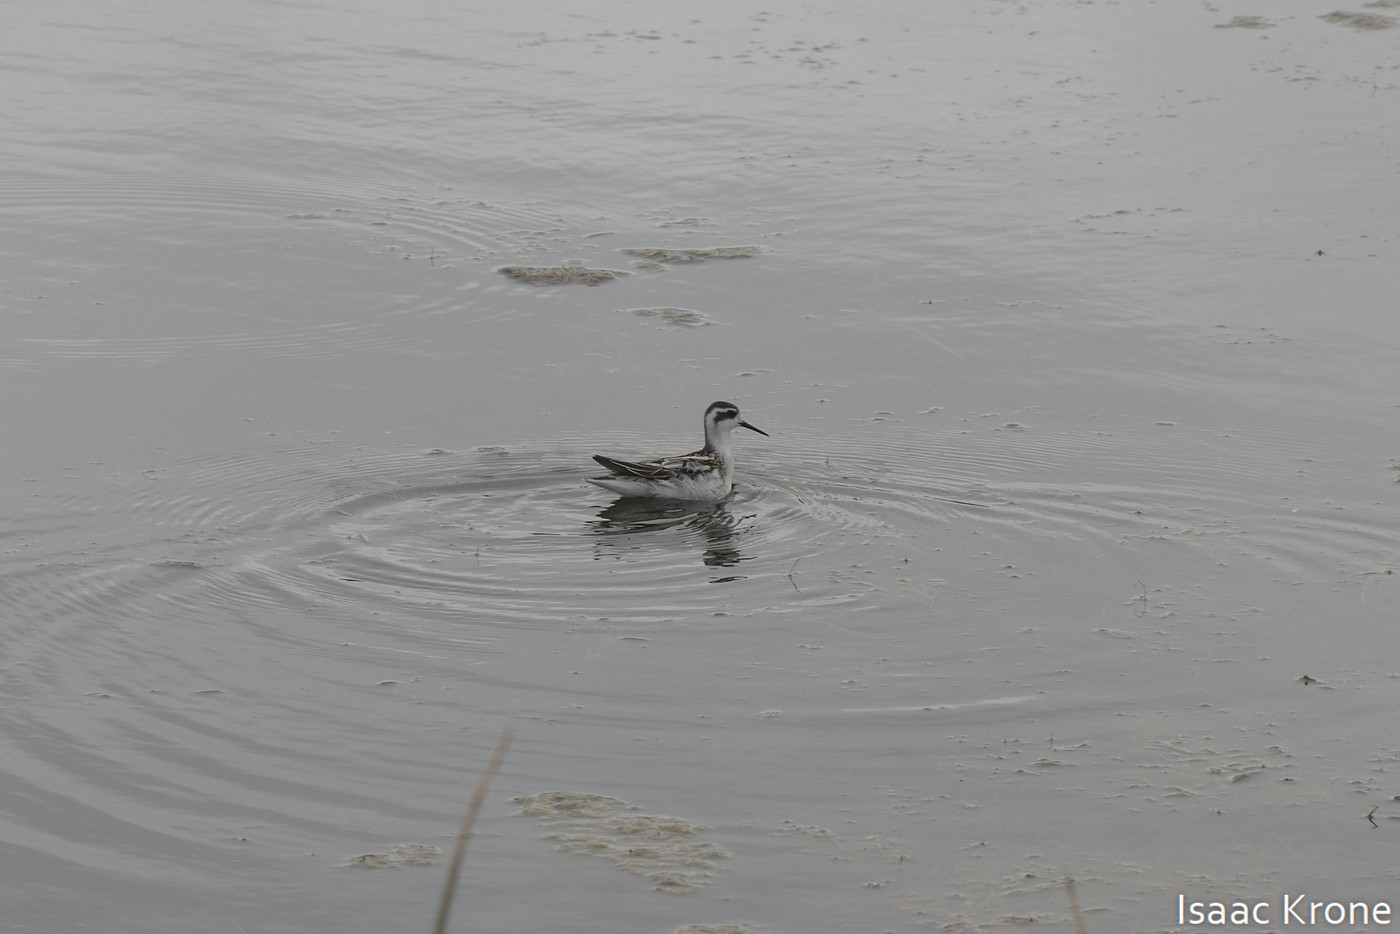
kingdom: Animalia
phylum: Chordata
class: Aves
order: Charadriiformes
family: Scolopacidae
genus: Phalaropus
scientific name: Phalaropus lobatus
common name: Red-necked phalarope
